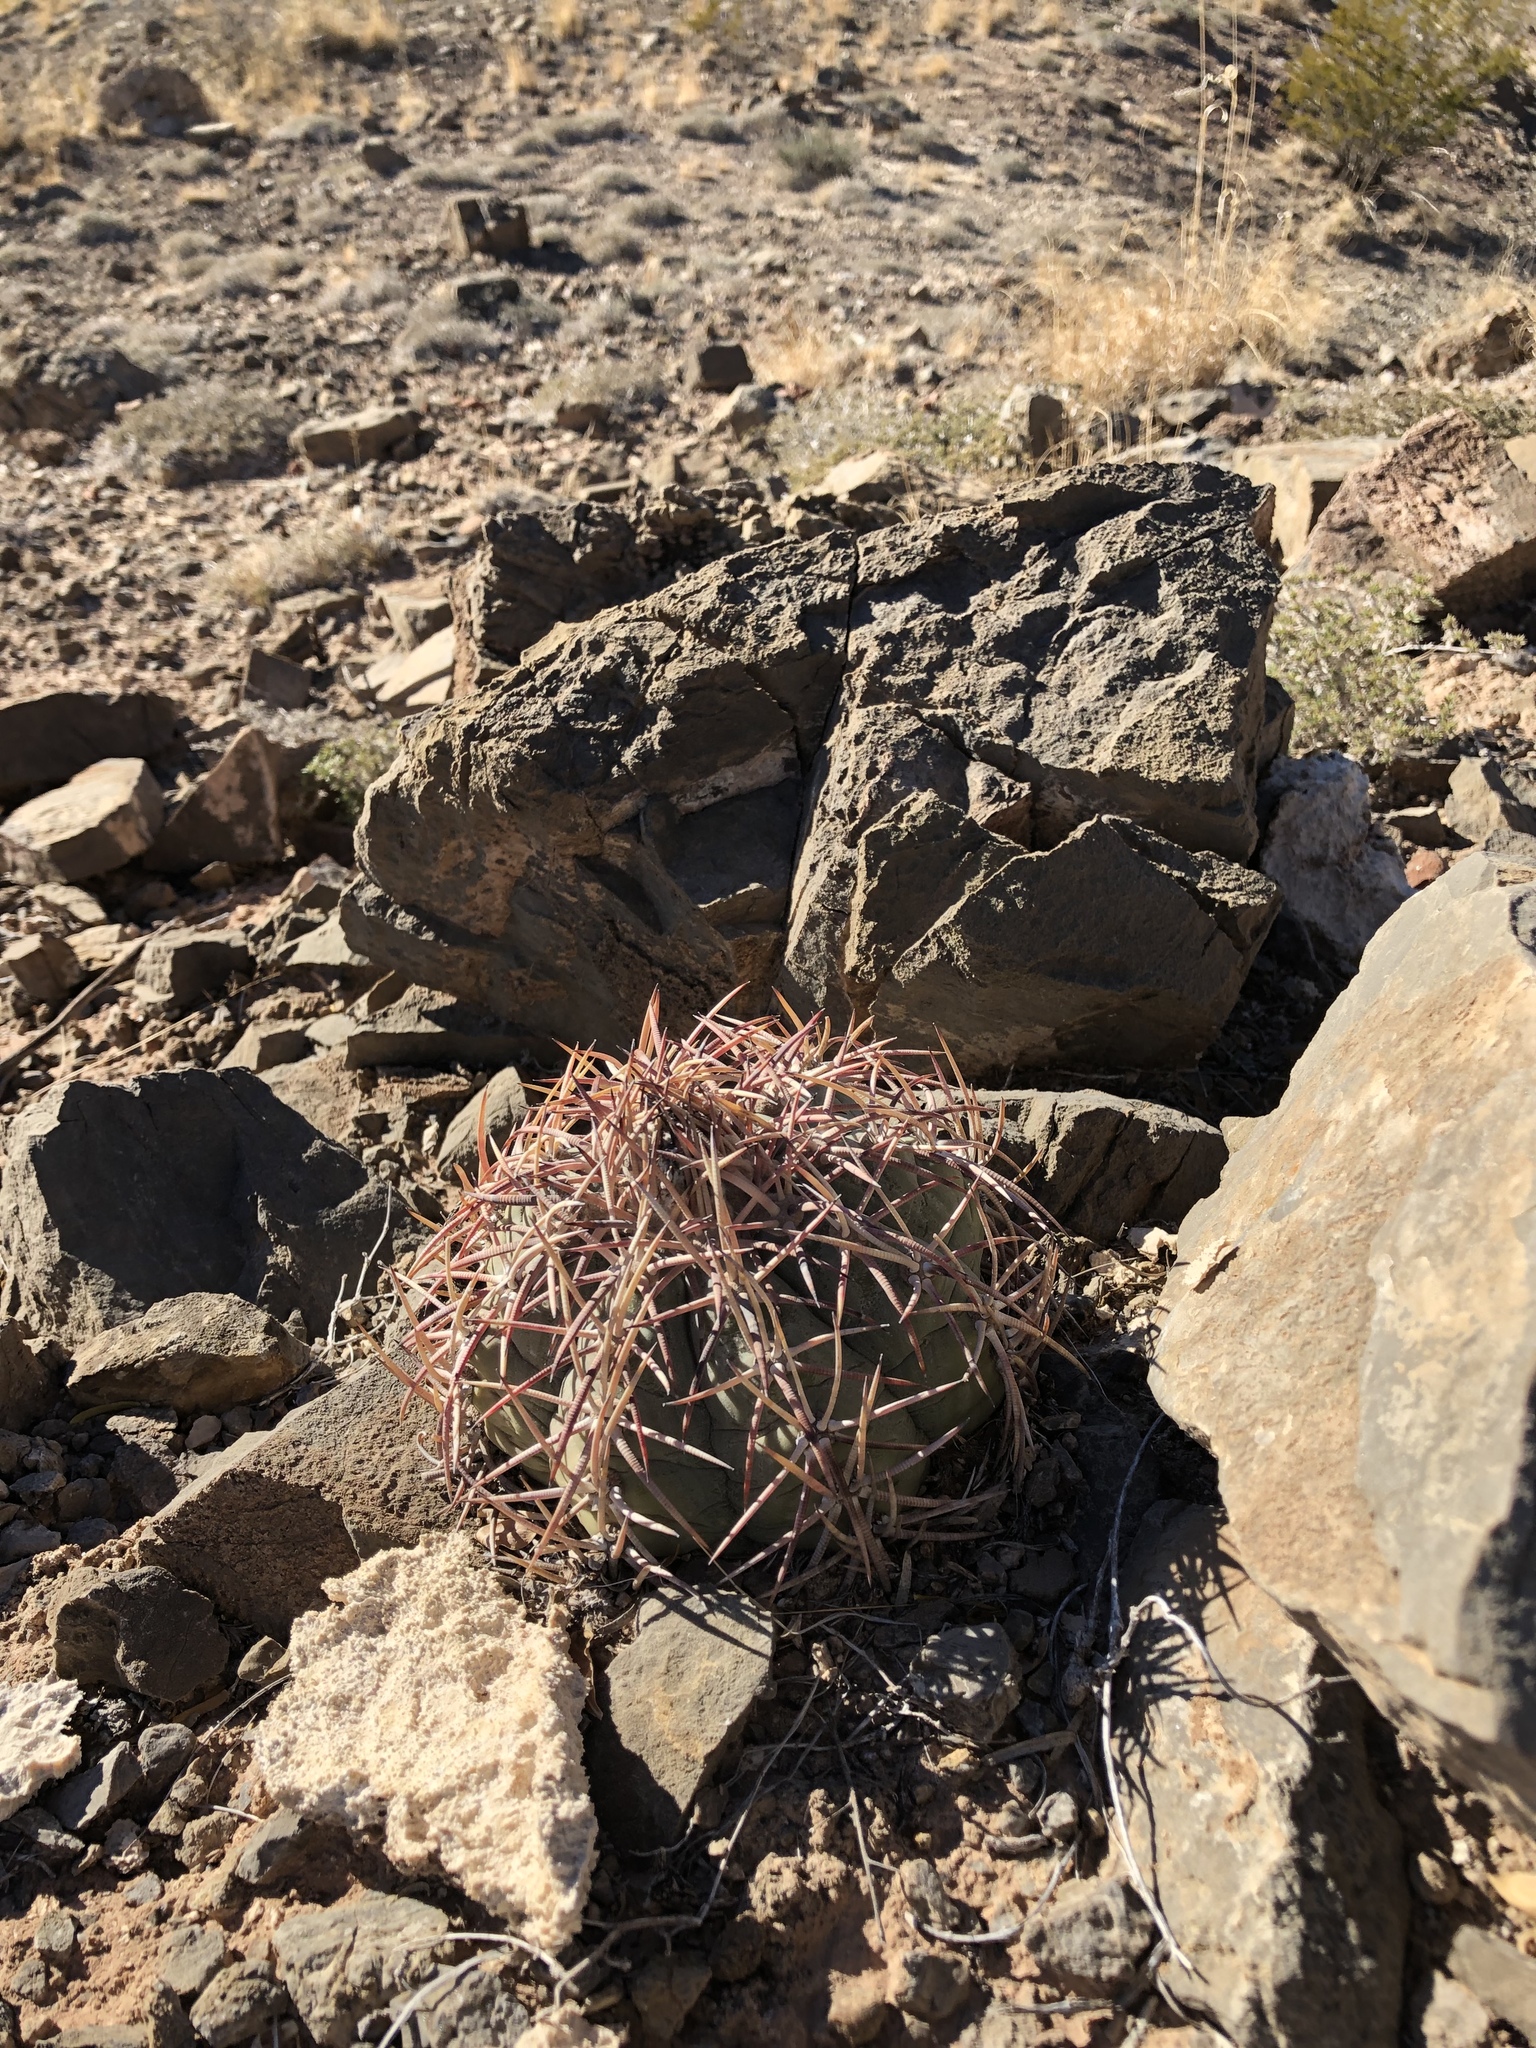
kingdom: Plantae
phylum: Tracheophyta
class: Magnoliopsida
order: Caryophyllales
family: Cactaceae
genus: Echinocactus
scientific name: Echinocactus horizonthalonius
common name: Devilshead
